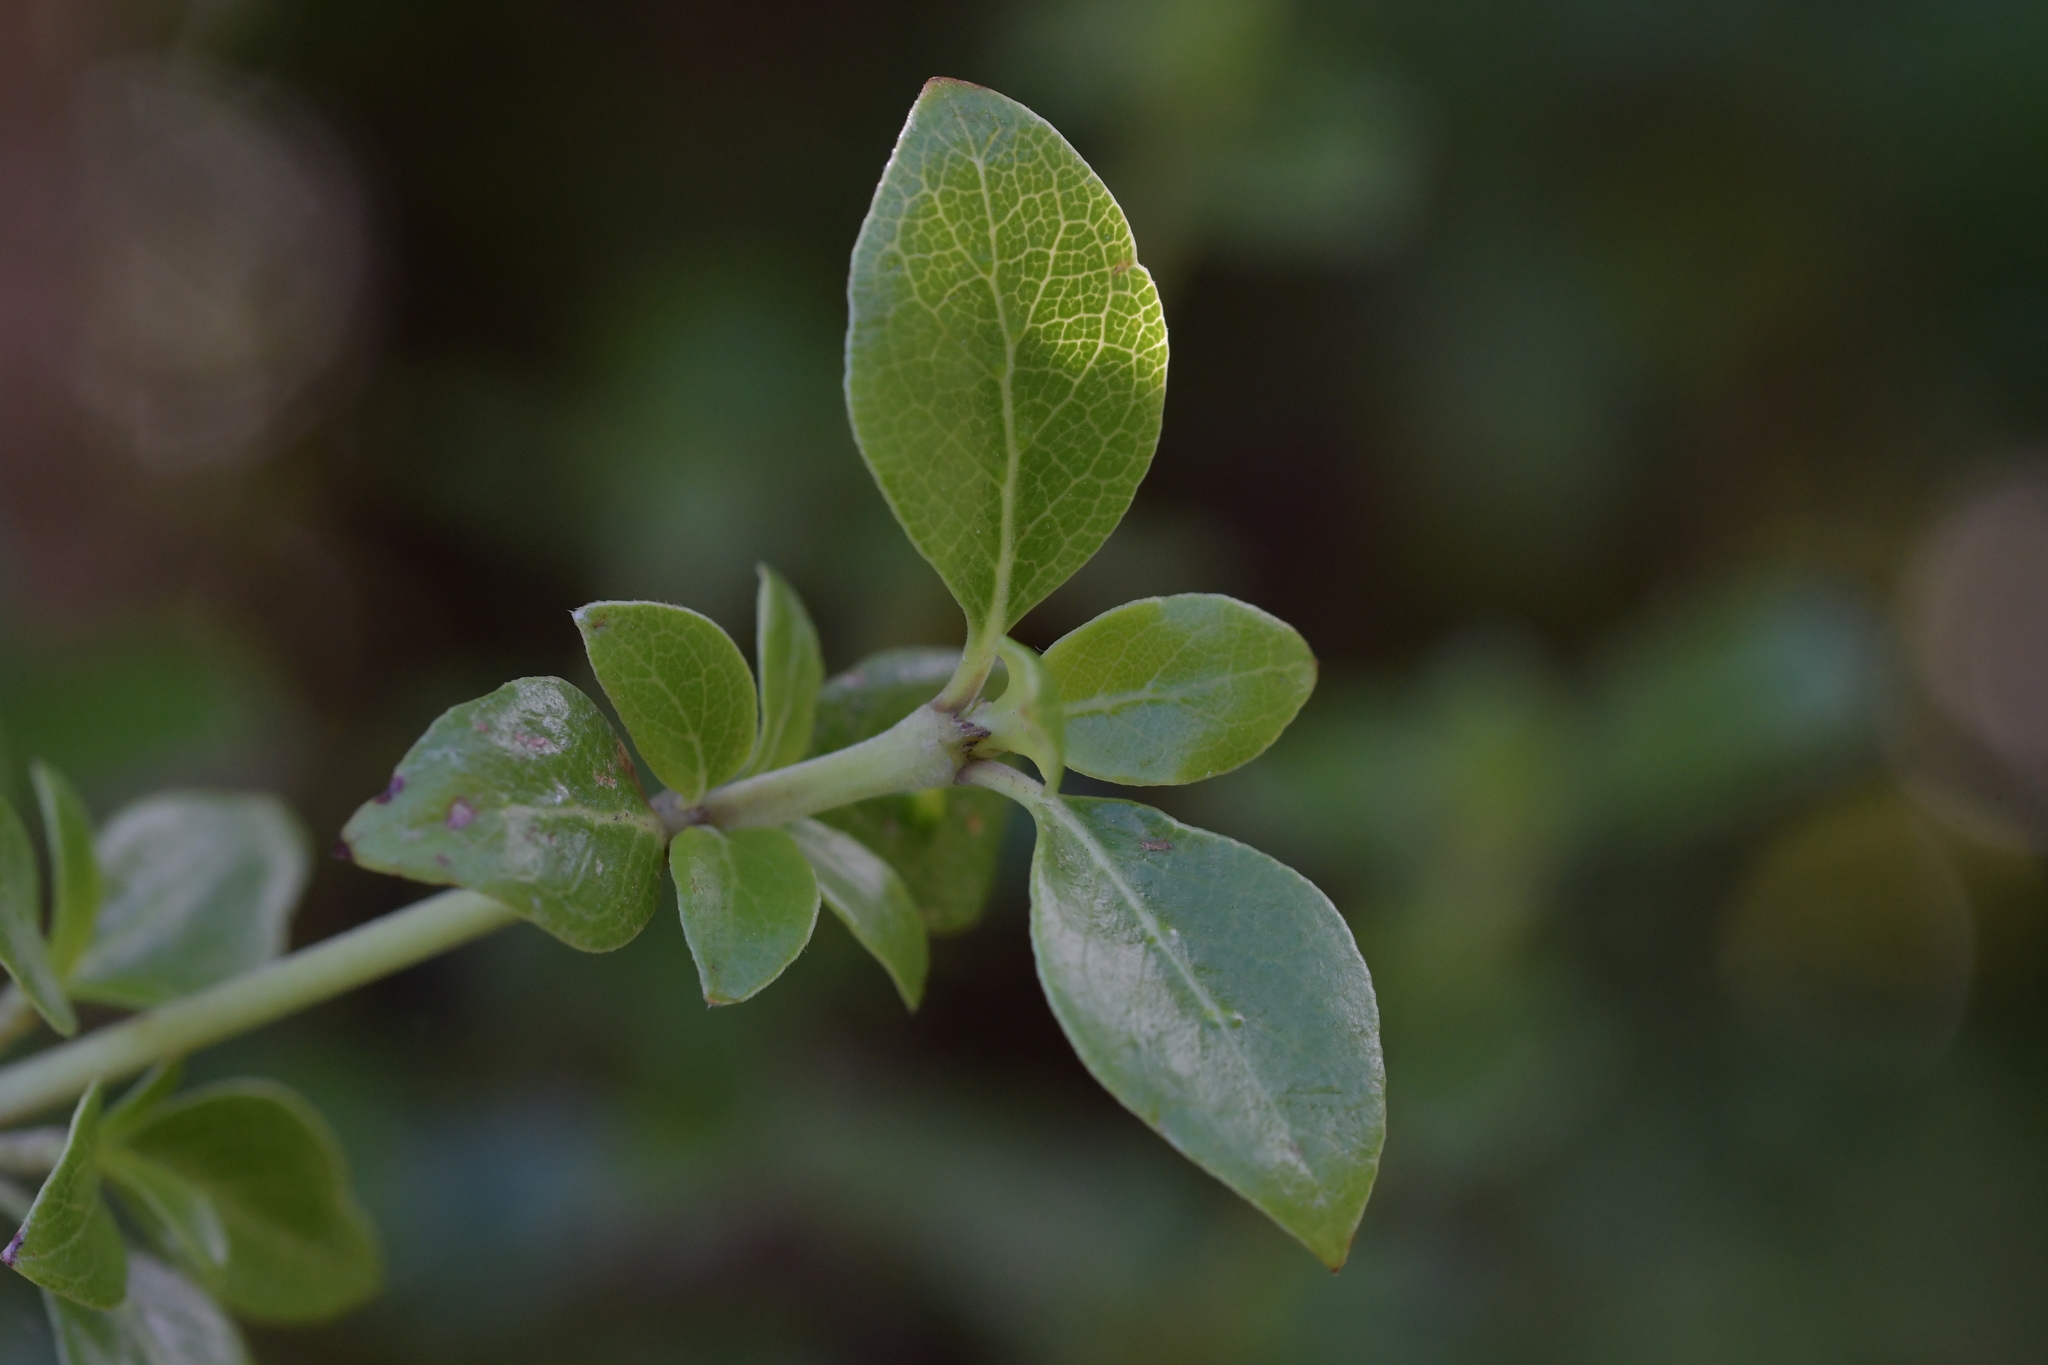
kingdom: Plantae
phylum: Tracheophyta
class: Magnoliopsida
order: Gentianales
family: Rubiaceae
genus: Coprosma
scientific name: Coprosma chathamica
